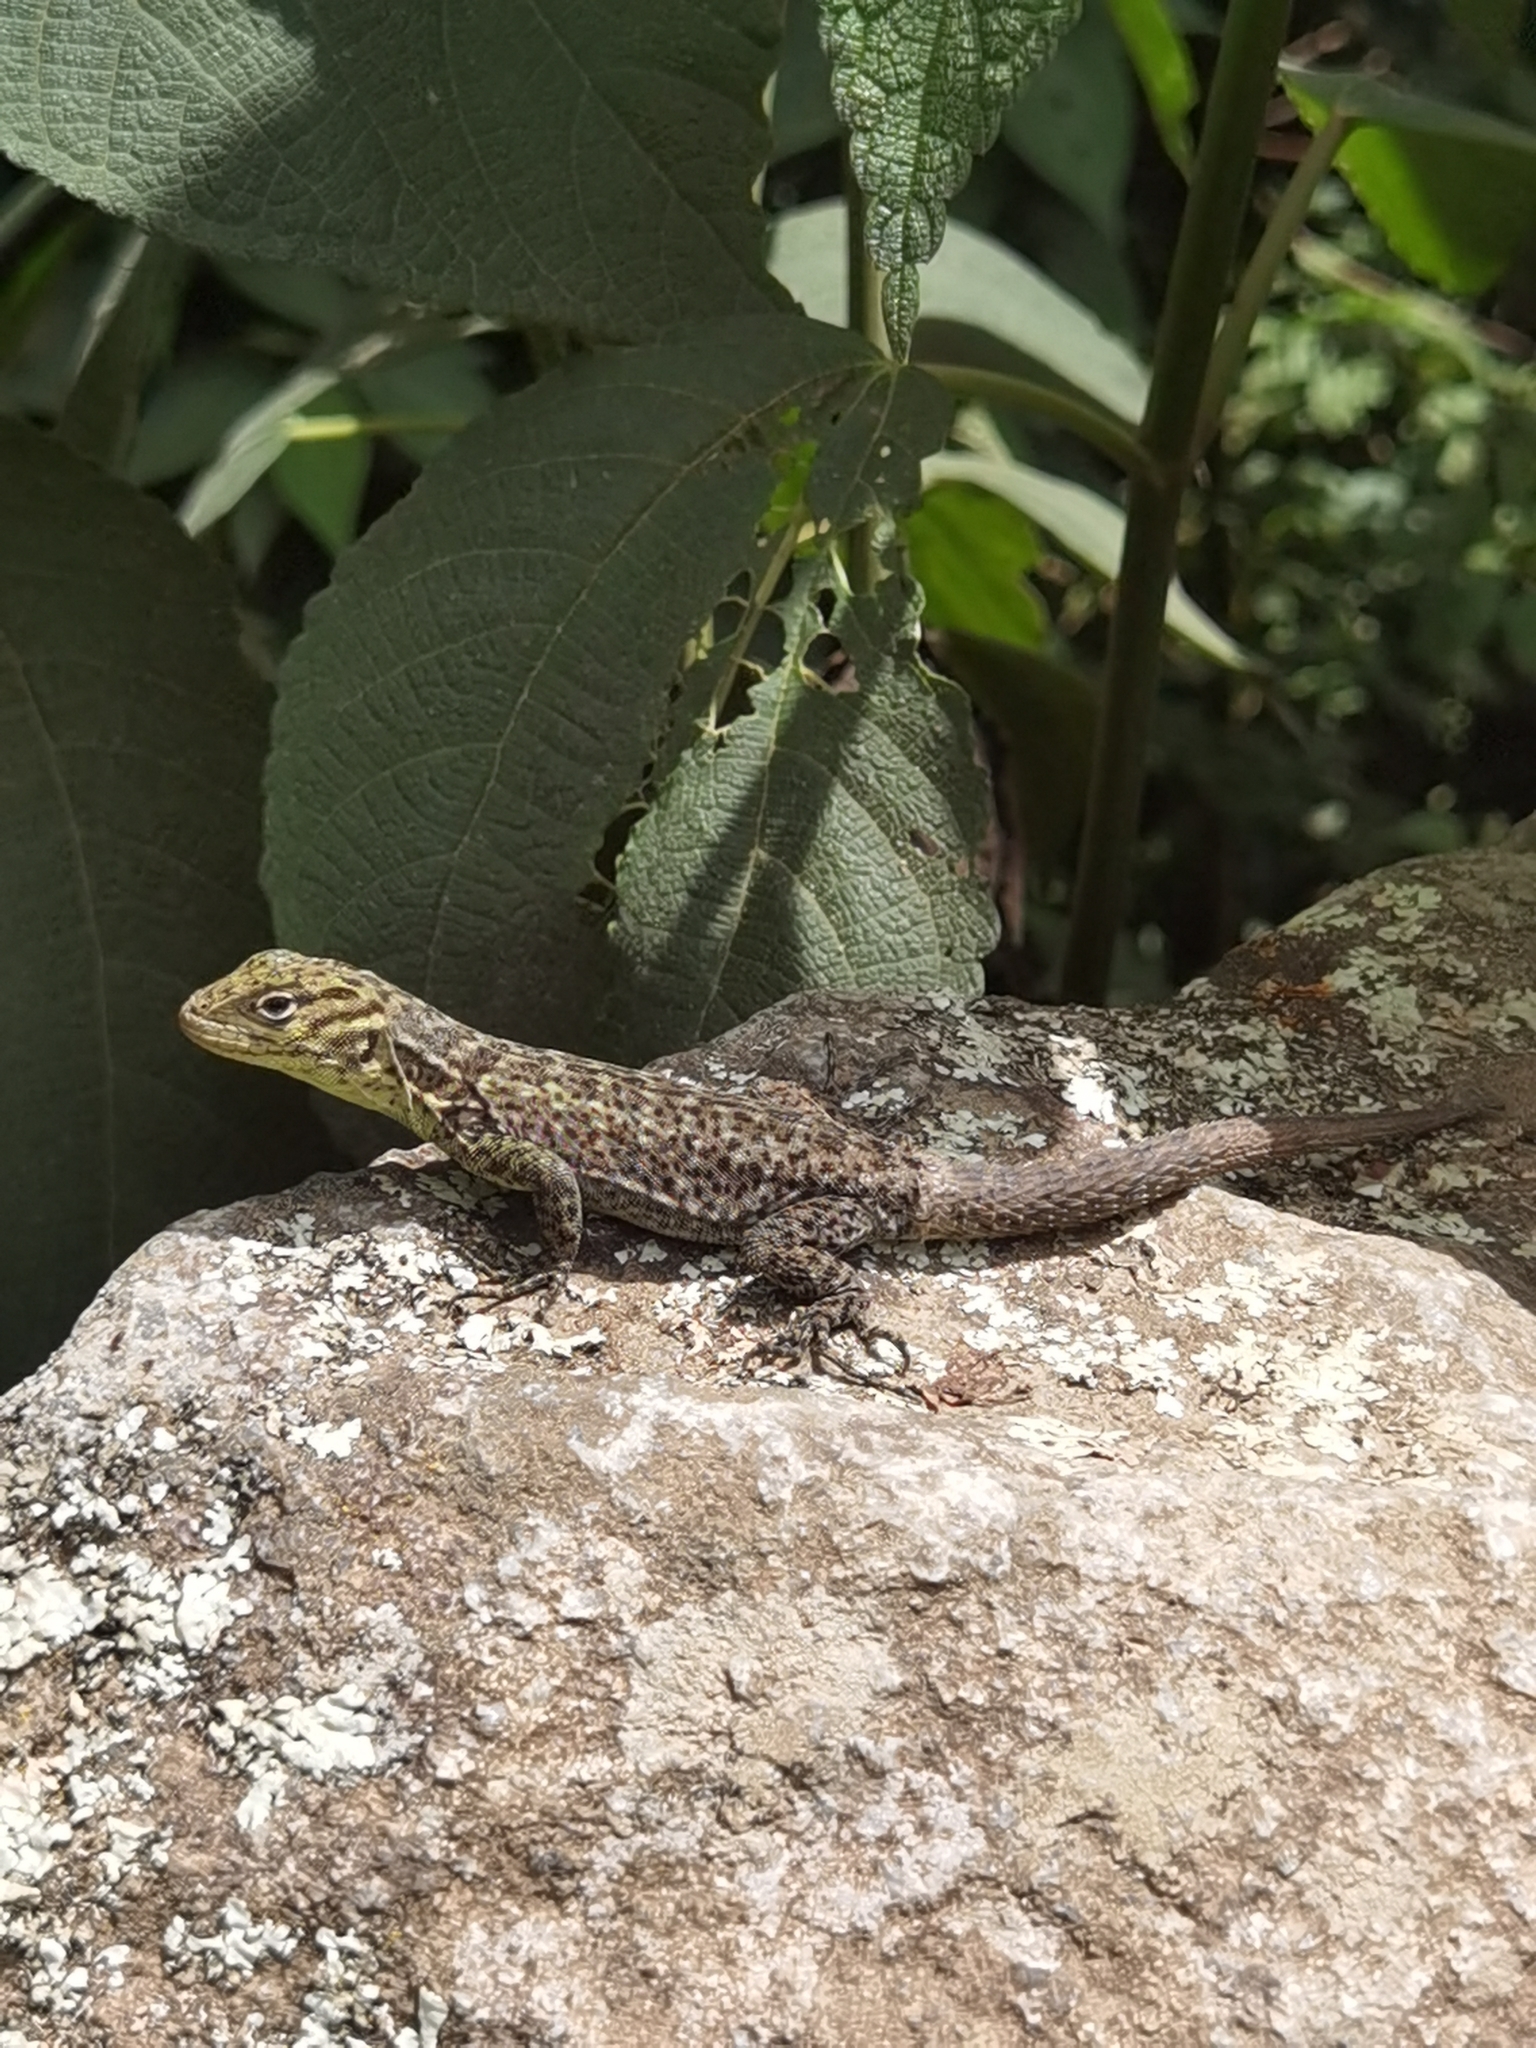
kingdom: Animalia
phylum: Chordata
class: Squamata
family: Tropiduridae
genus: Stenocercus
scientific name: Stenocercus crassicaudatus
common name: Spiny whorltail iguana
